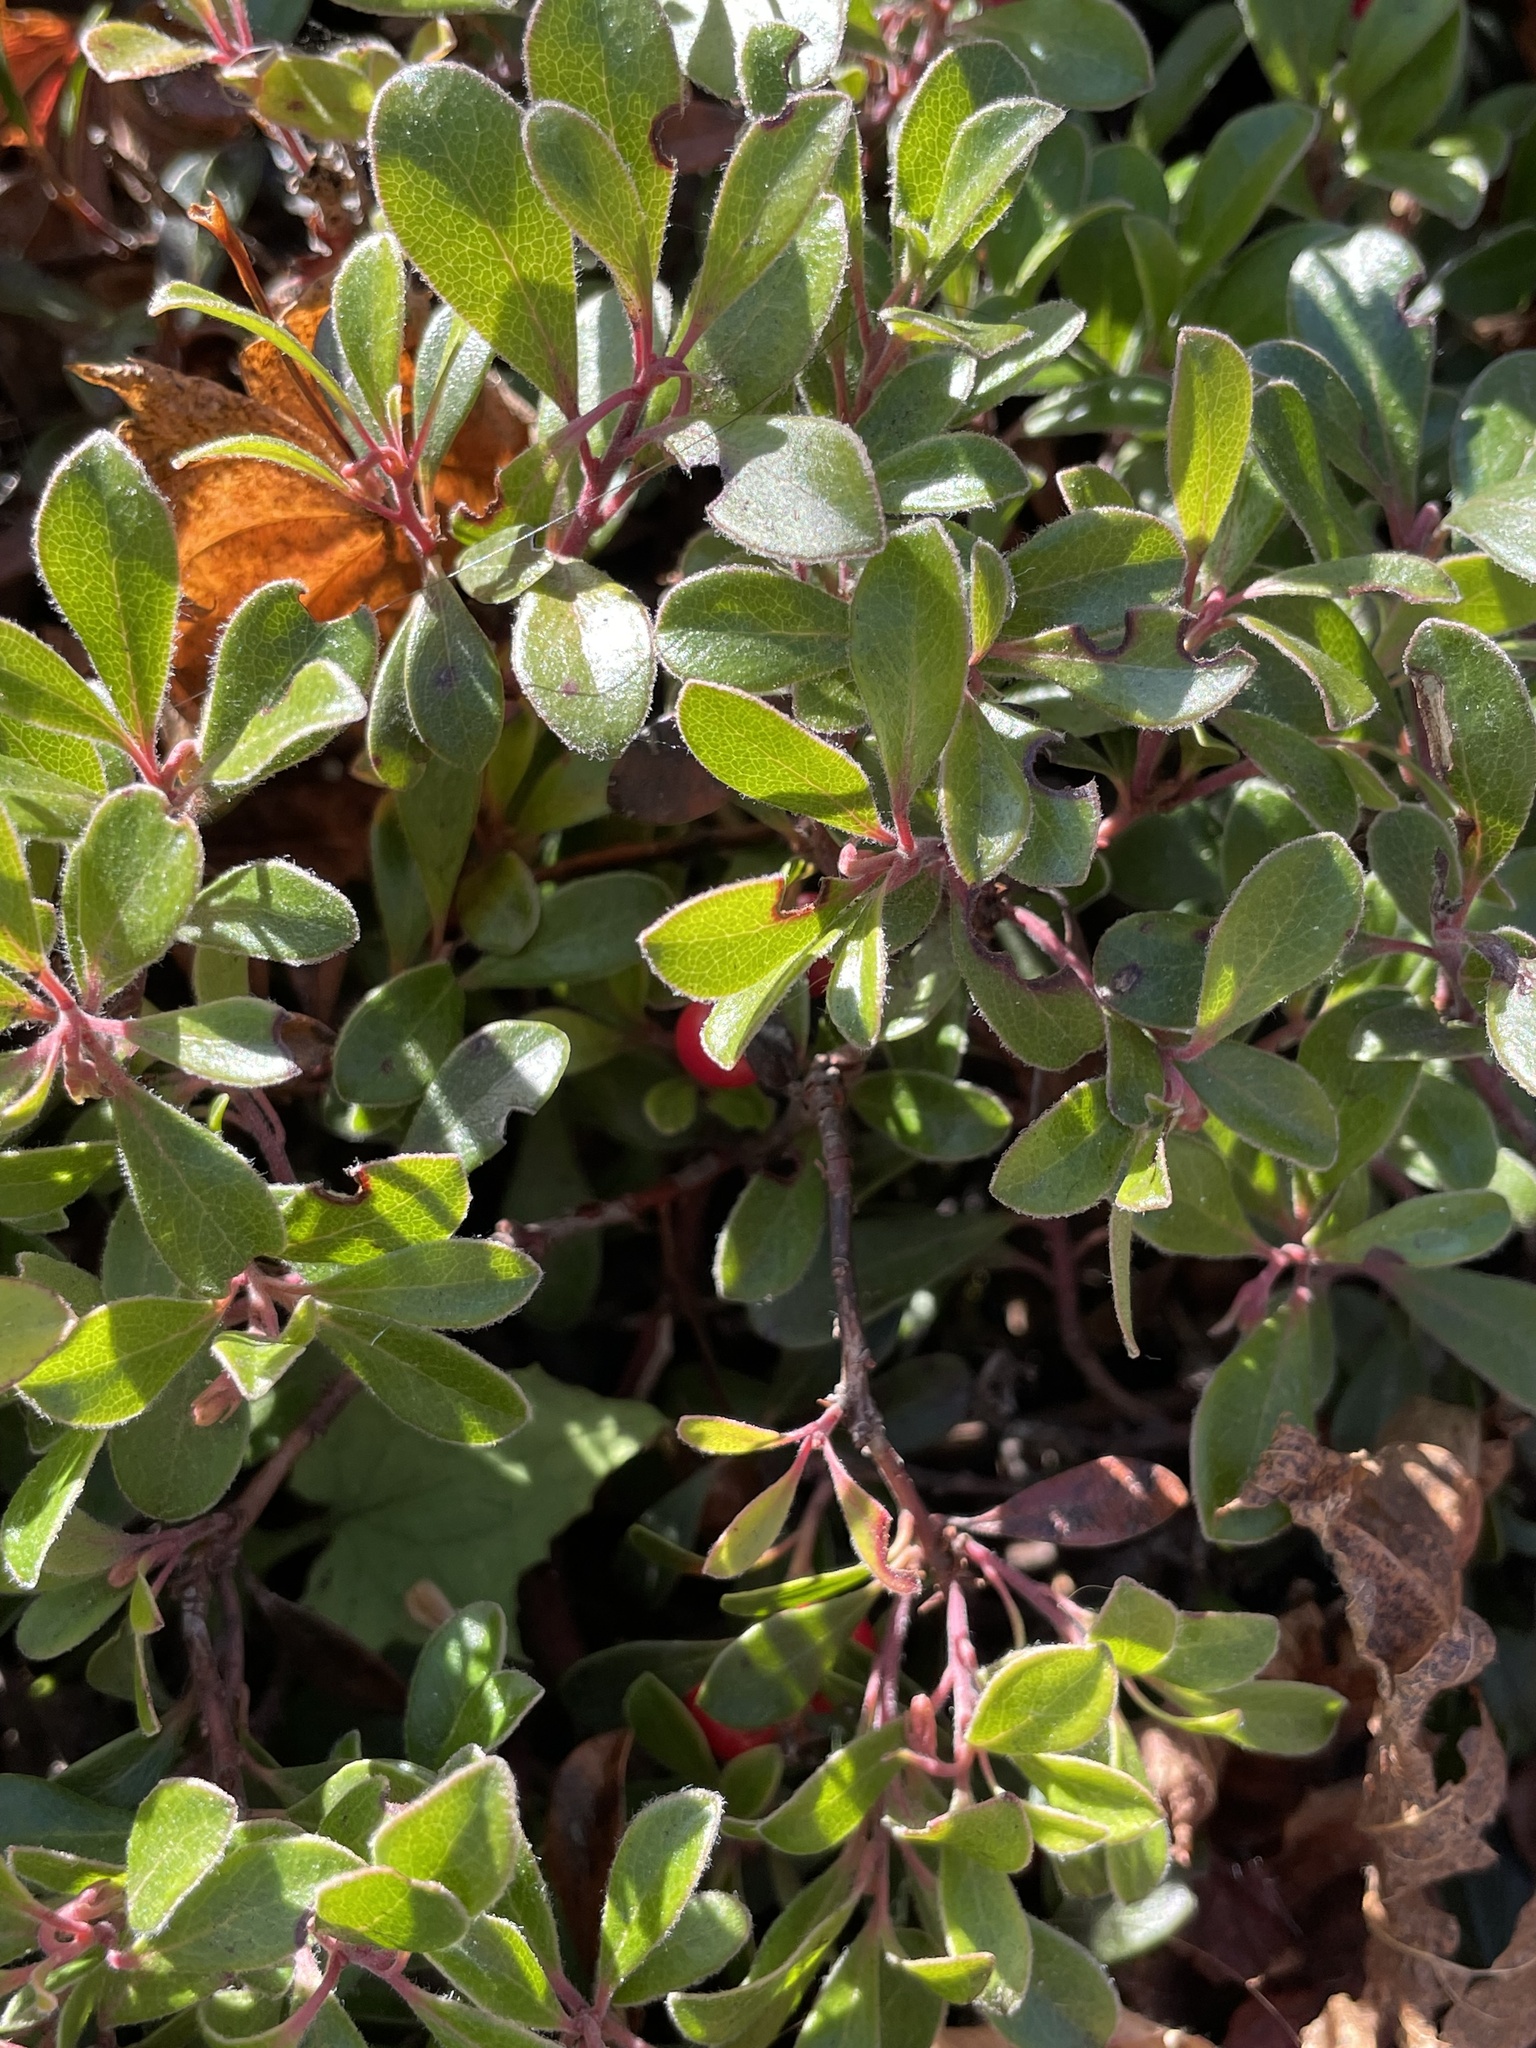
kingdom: Plantae
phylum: Tracheophyta
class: Magnoliopsida
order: Ericales
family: Ericaceae
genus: Arctostaphylos
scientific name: Arctostaphylos uva-ursi
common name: Bearberry
